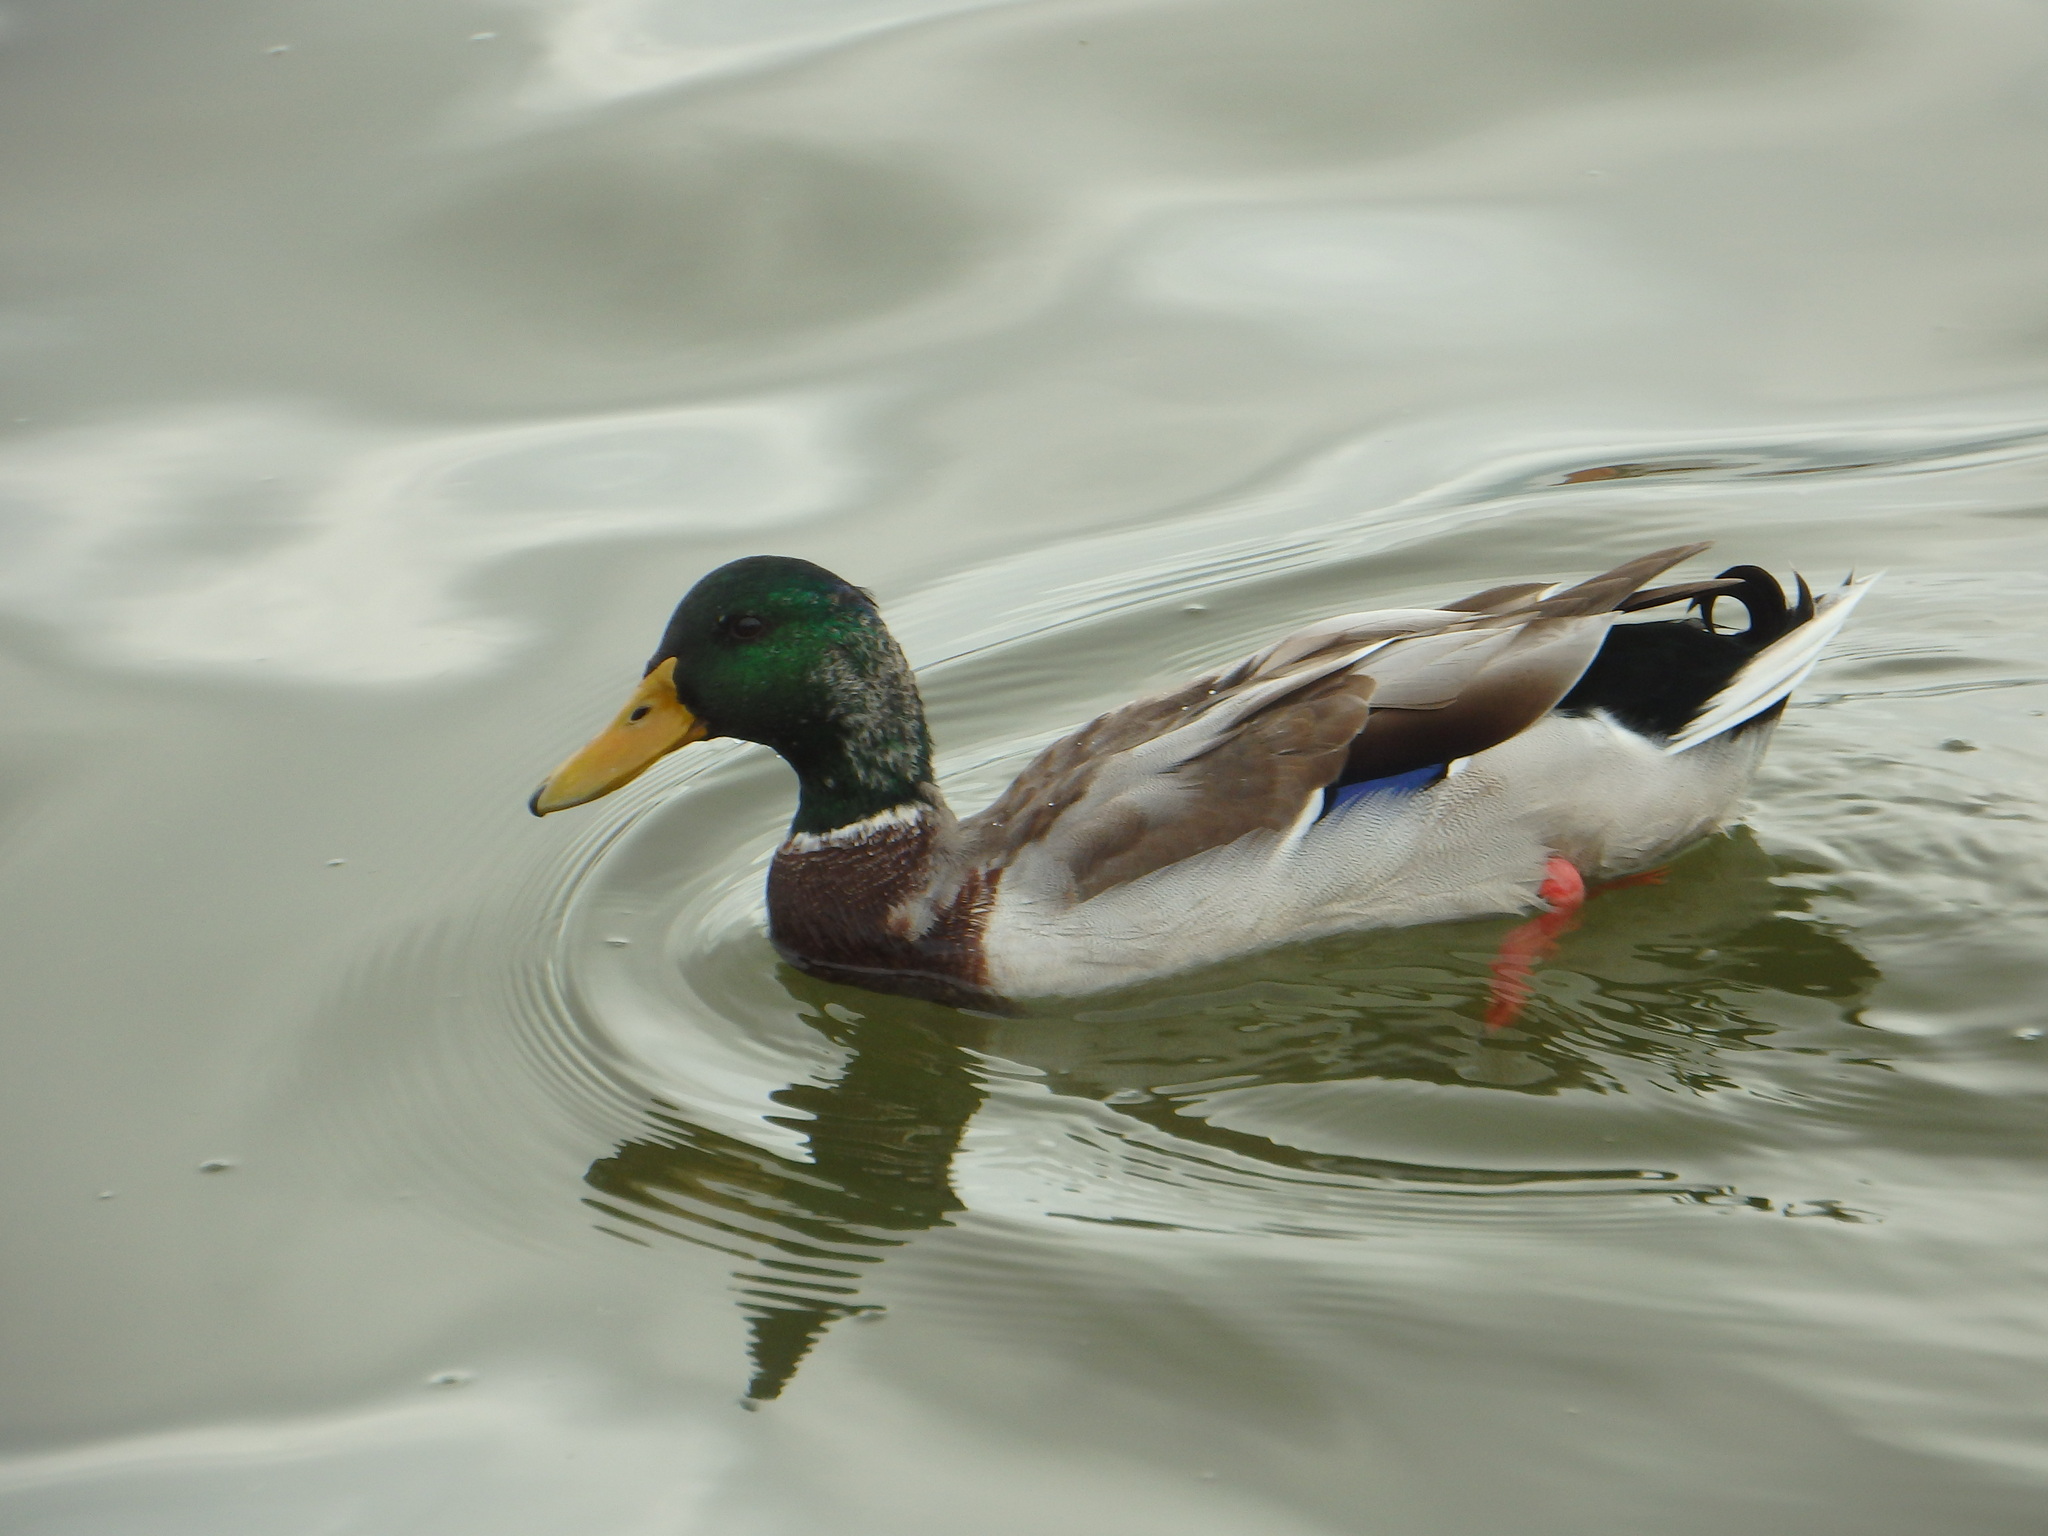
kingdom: Animalia
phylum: Chordata
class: Aves
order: Anseriformes
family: Anatidae
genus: Anas
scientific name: Anas platyrhynchos
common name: Mallard
